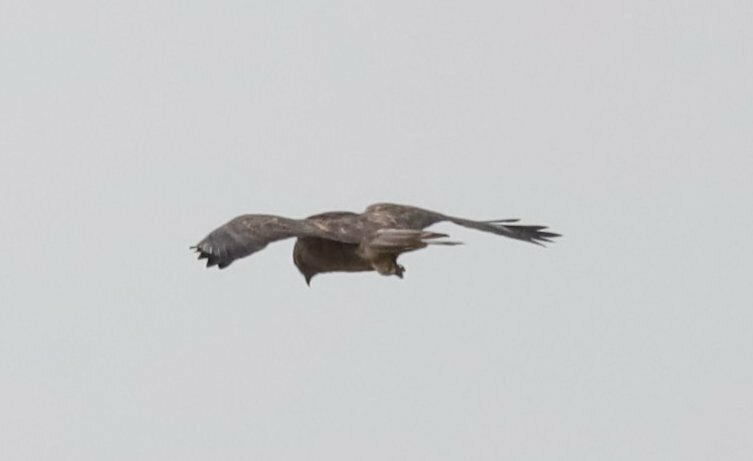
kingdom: Animalia
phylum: Chordata
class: Aves
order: Accipitriformes
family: Accipitridae
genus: Buteo
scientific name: Buteo buteo
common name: Common buzzard
